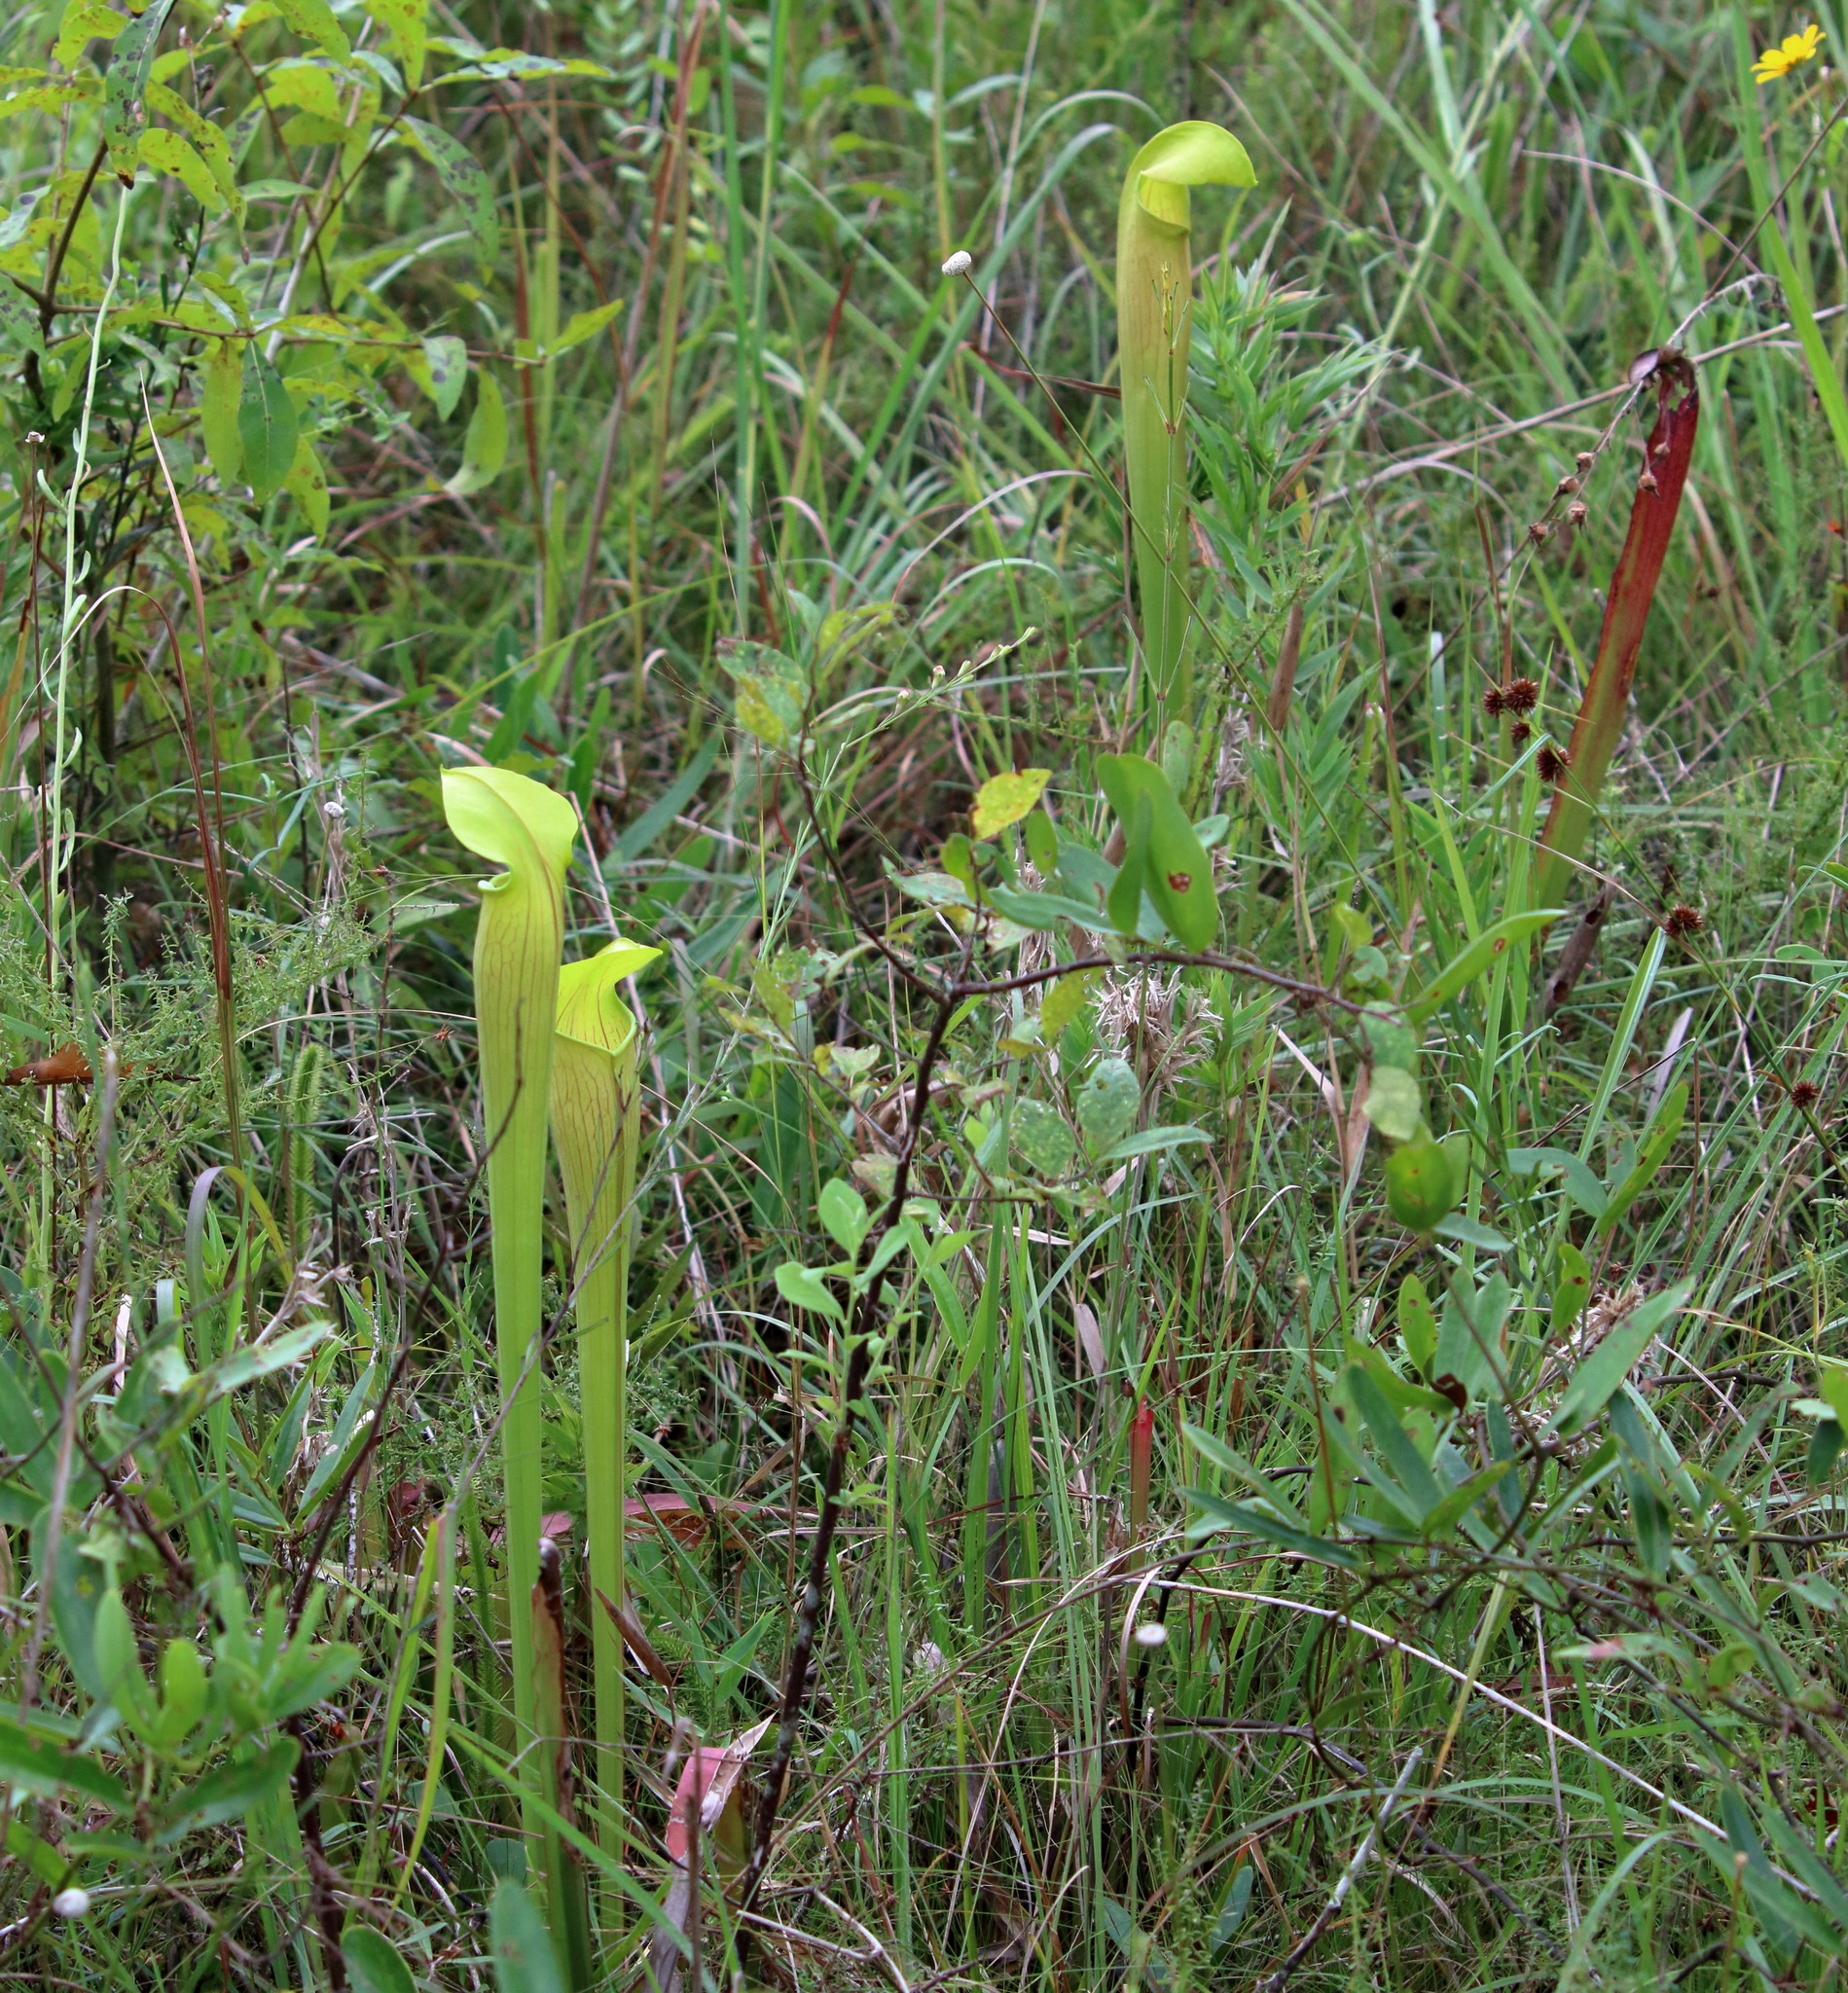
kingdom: Plantae
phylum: Tracheophyta
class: Magnoliopsida
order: Ericales
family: Sarraceniaceae
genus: Sarracenia
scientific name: Sarracenia alata
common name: Yellow trumpets
